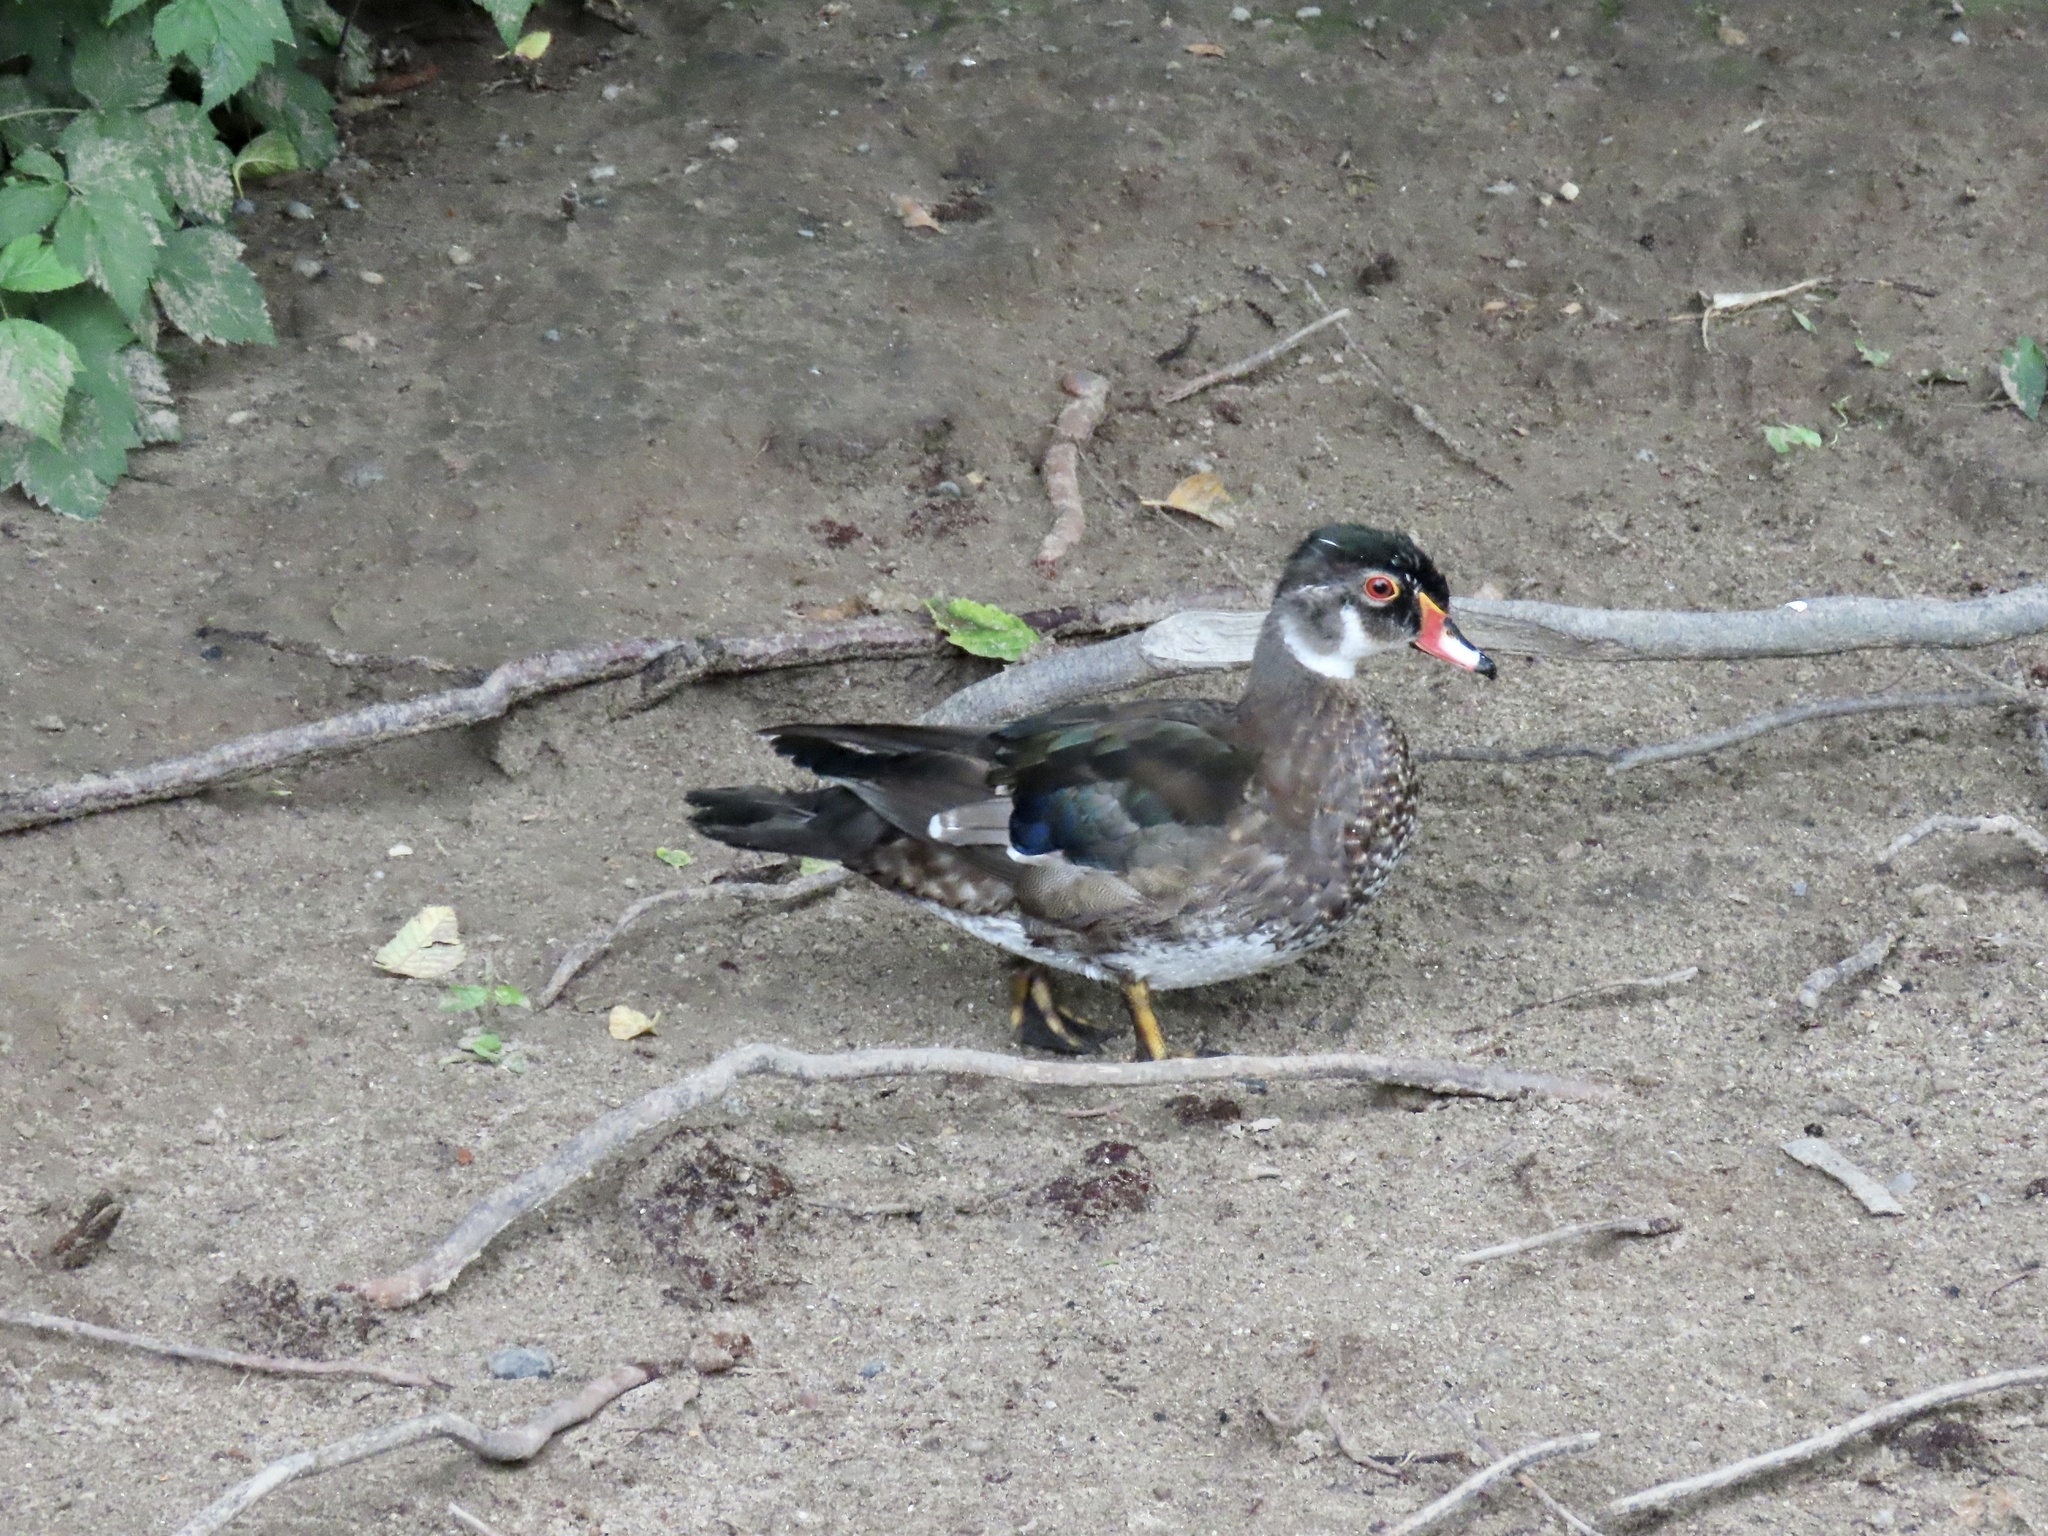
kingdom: Animalia
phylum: Chordata
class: Aves
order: Anseriformes
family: Anatidae
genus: Aix
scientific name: Aix sponsa
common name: Wood duck
